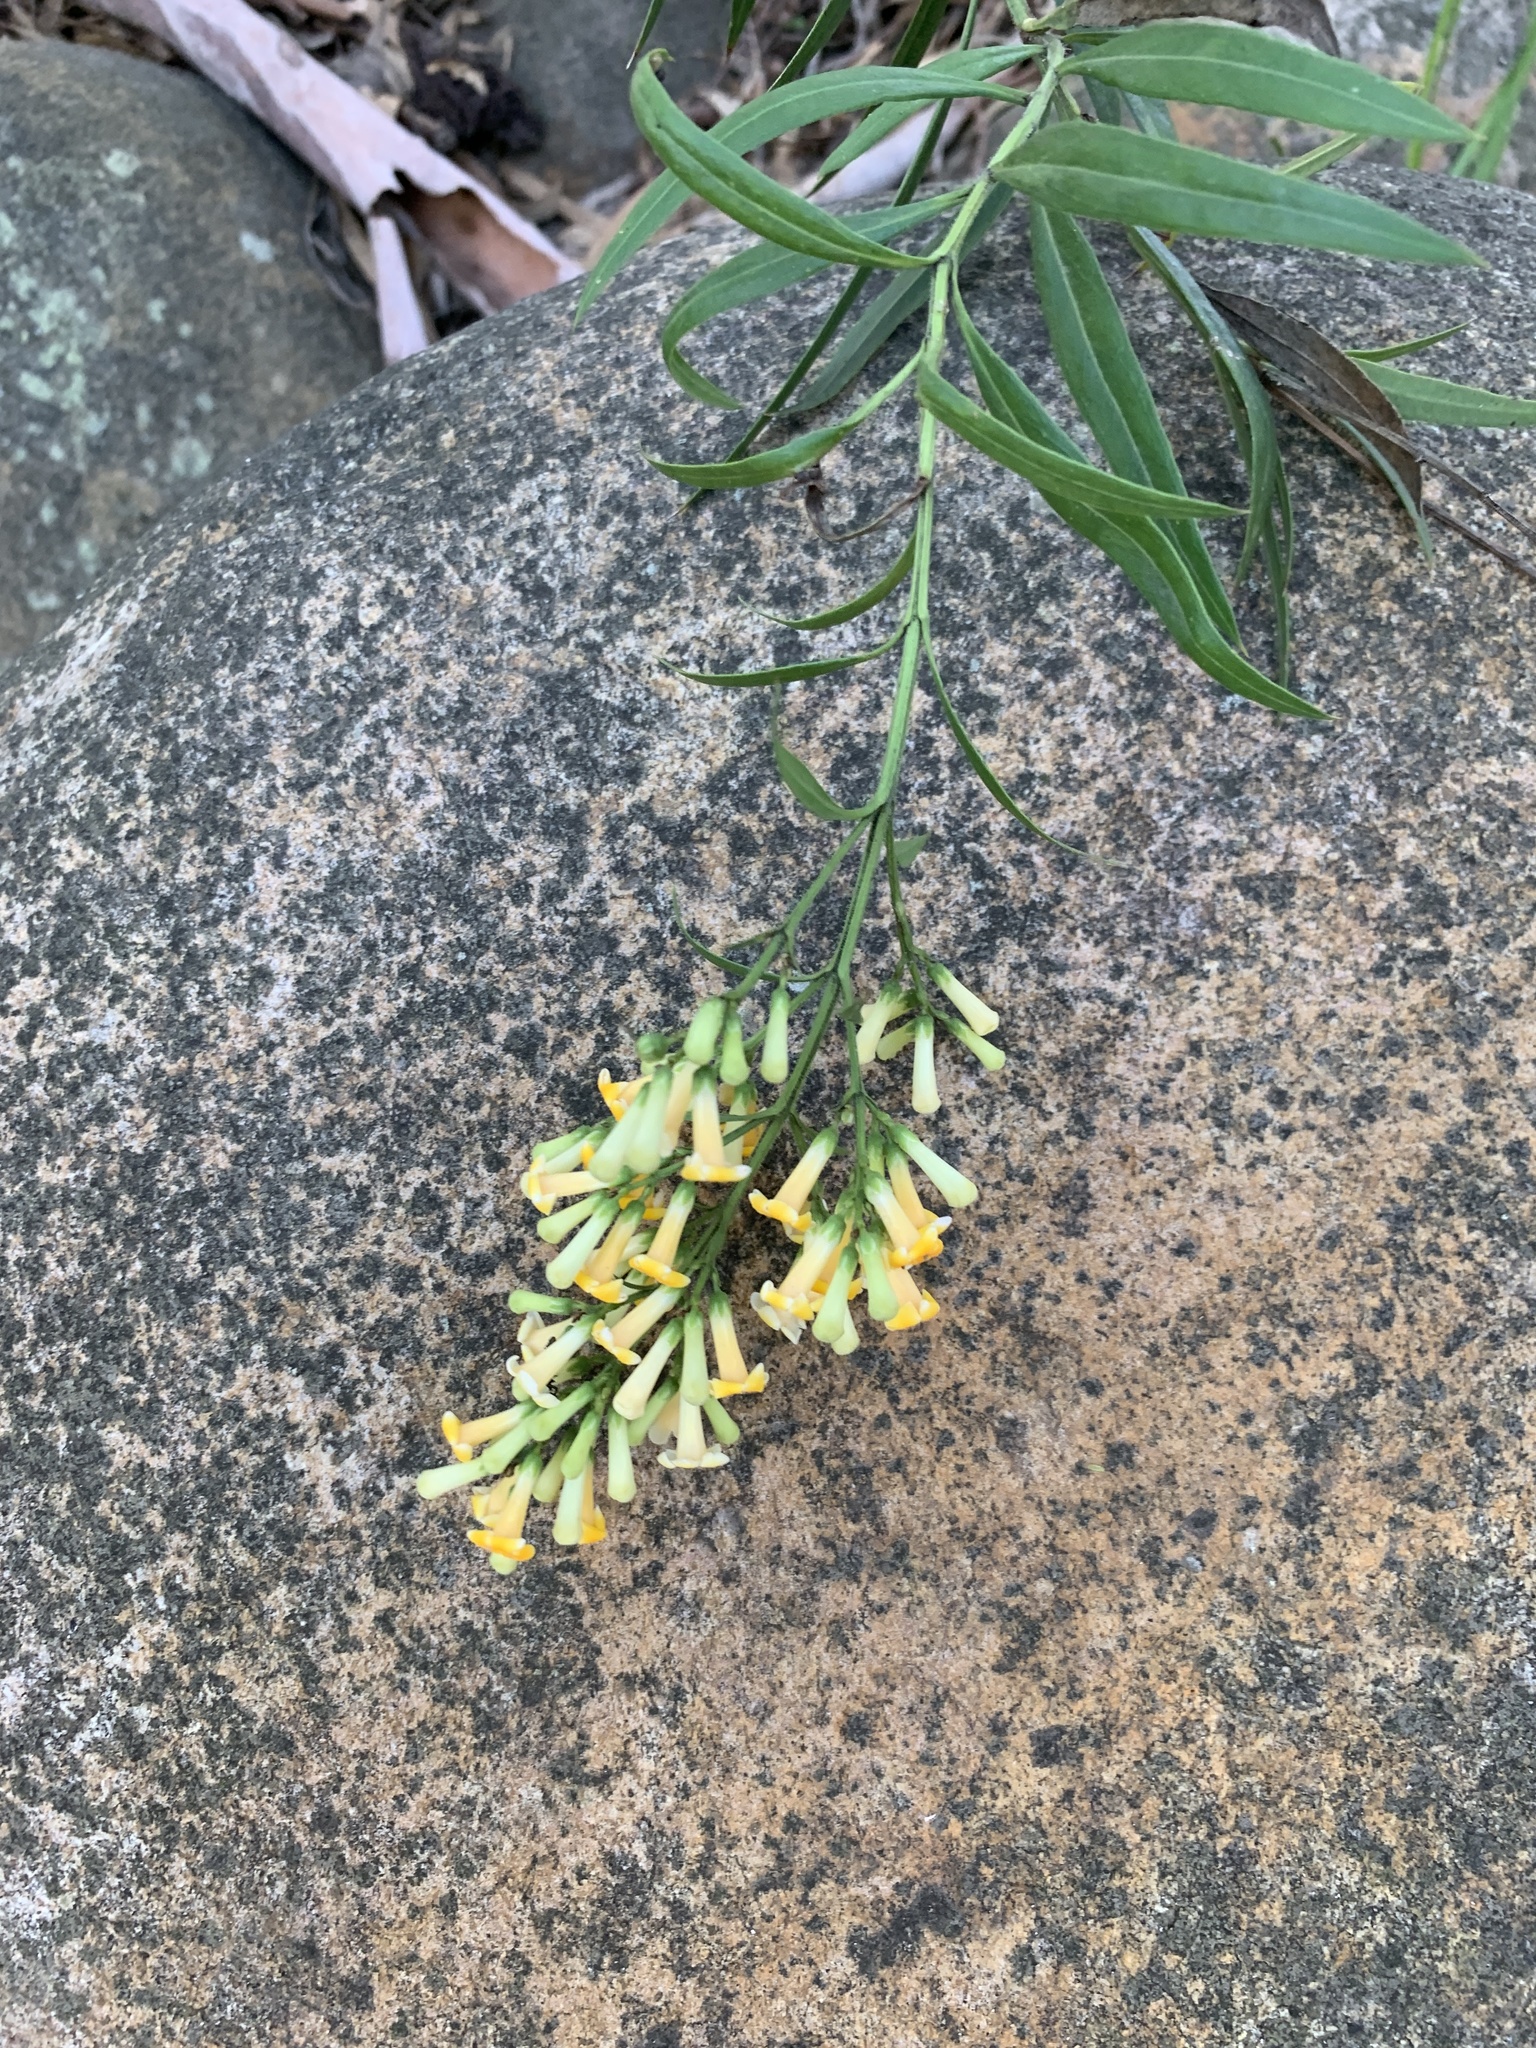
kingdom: Plantae
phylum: Tracheophyta
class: Magnoliopsida
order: Lamiales
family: Scrophulariaceae
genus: Freylinia
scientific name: Freylinia lanceolata
